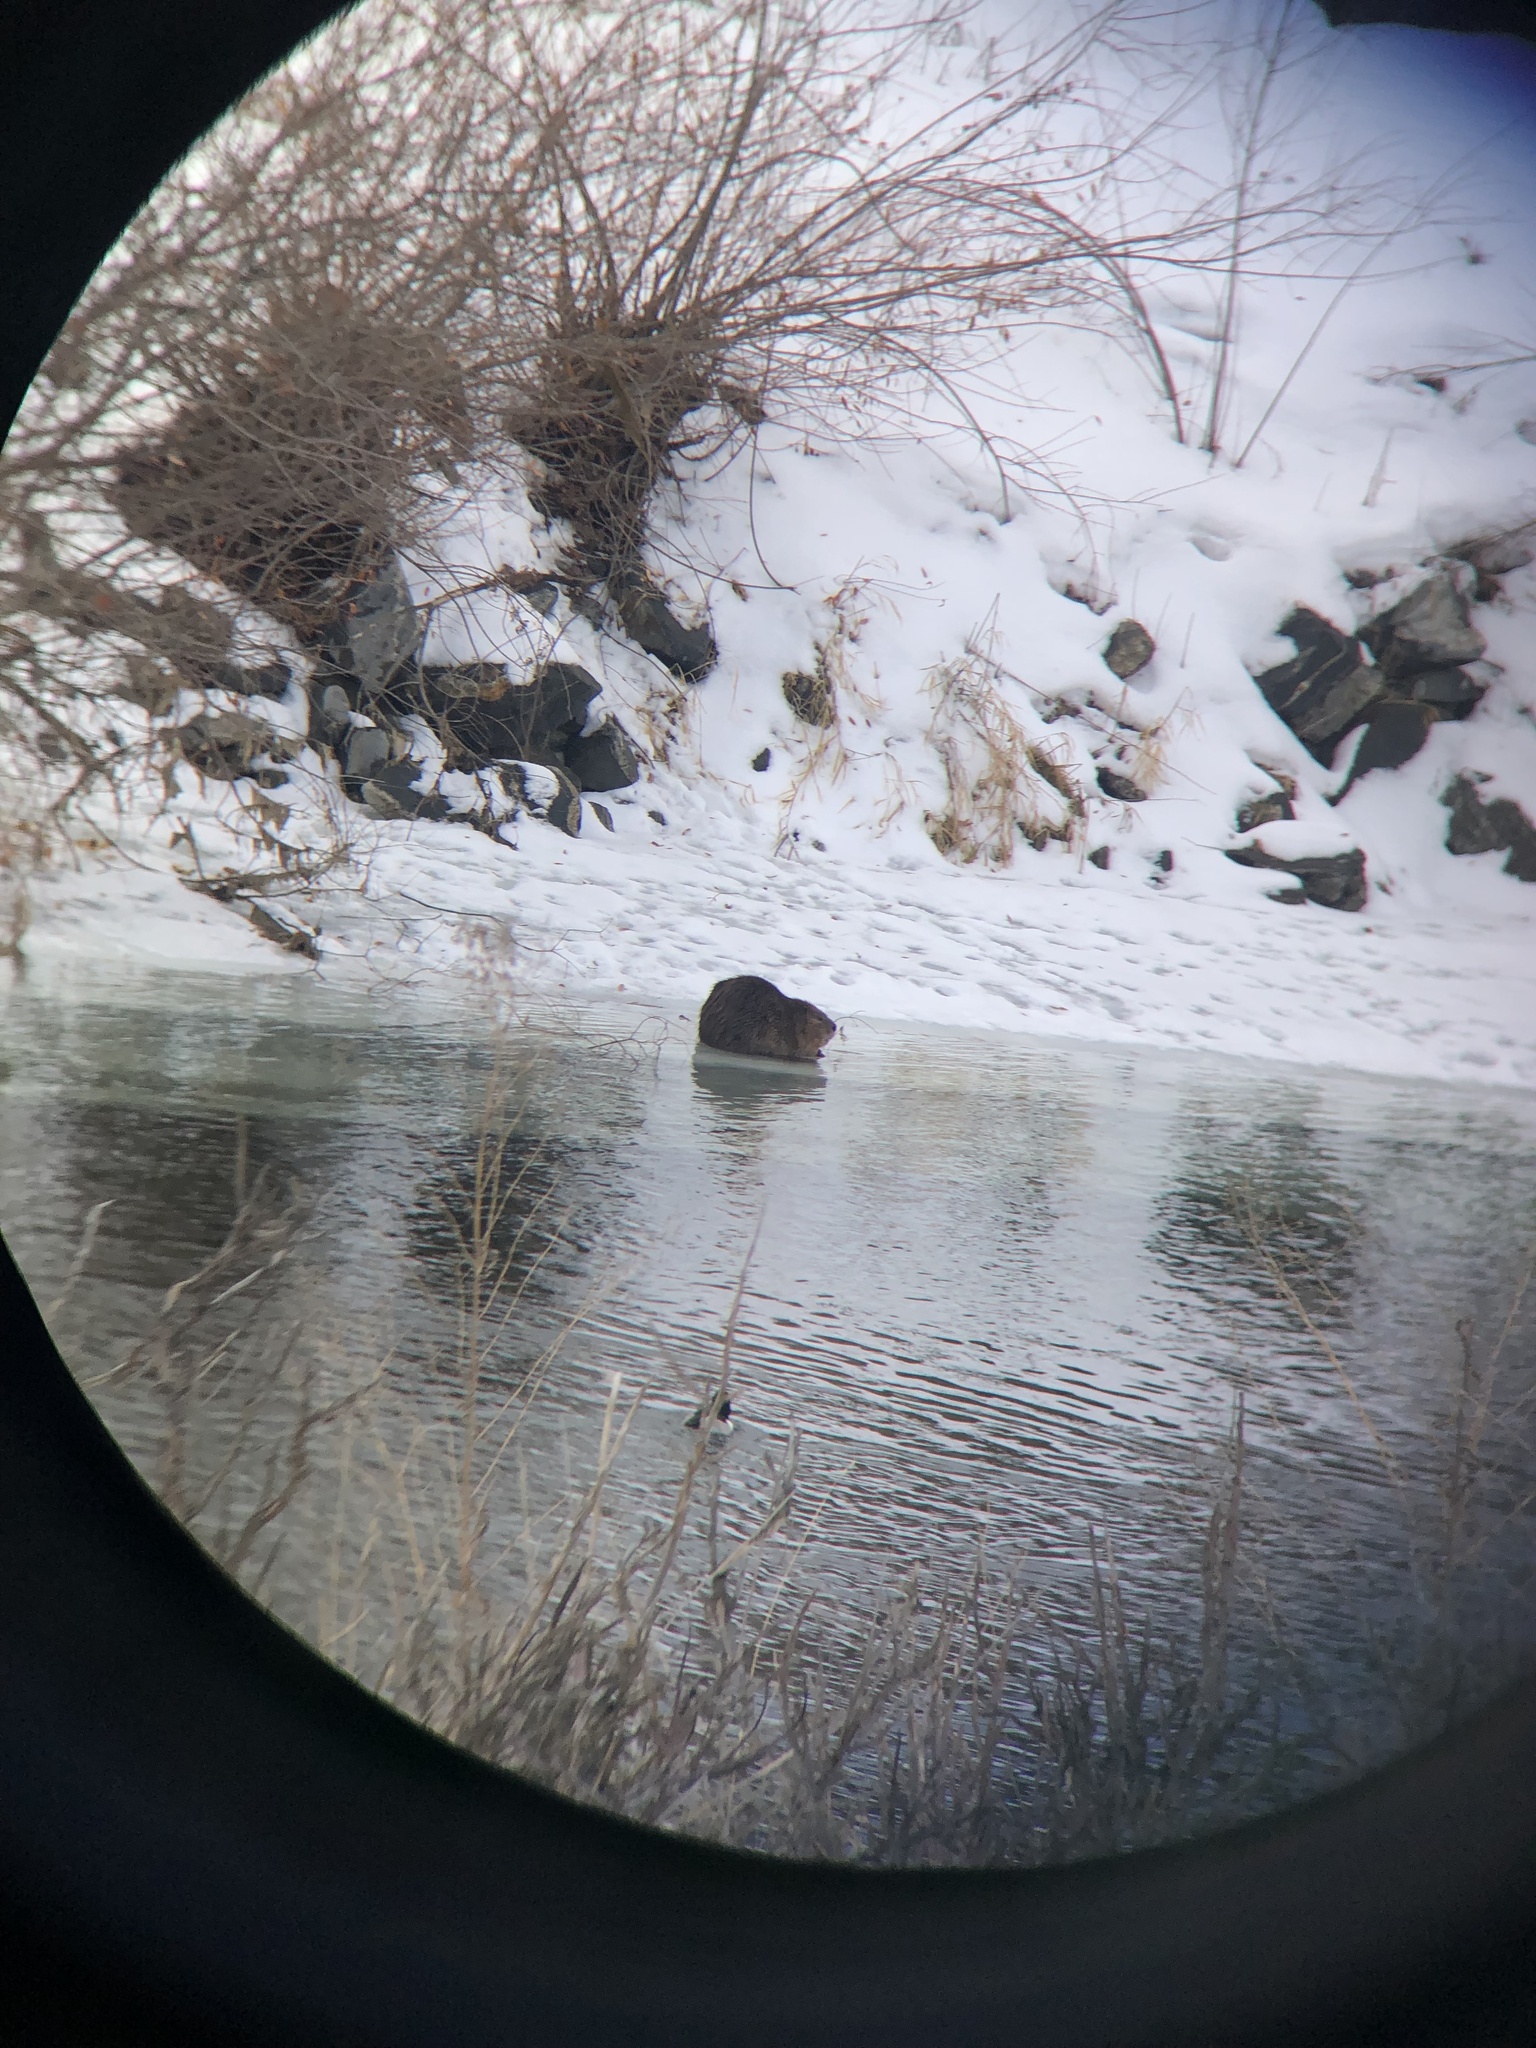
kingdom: Animalia
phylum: Chordata
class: Mammalia
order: Rodentia
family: Castoridae
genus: Castor
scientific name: Castor canadensis
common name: American beaver
